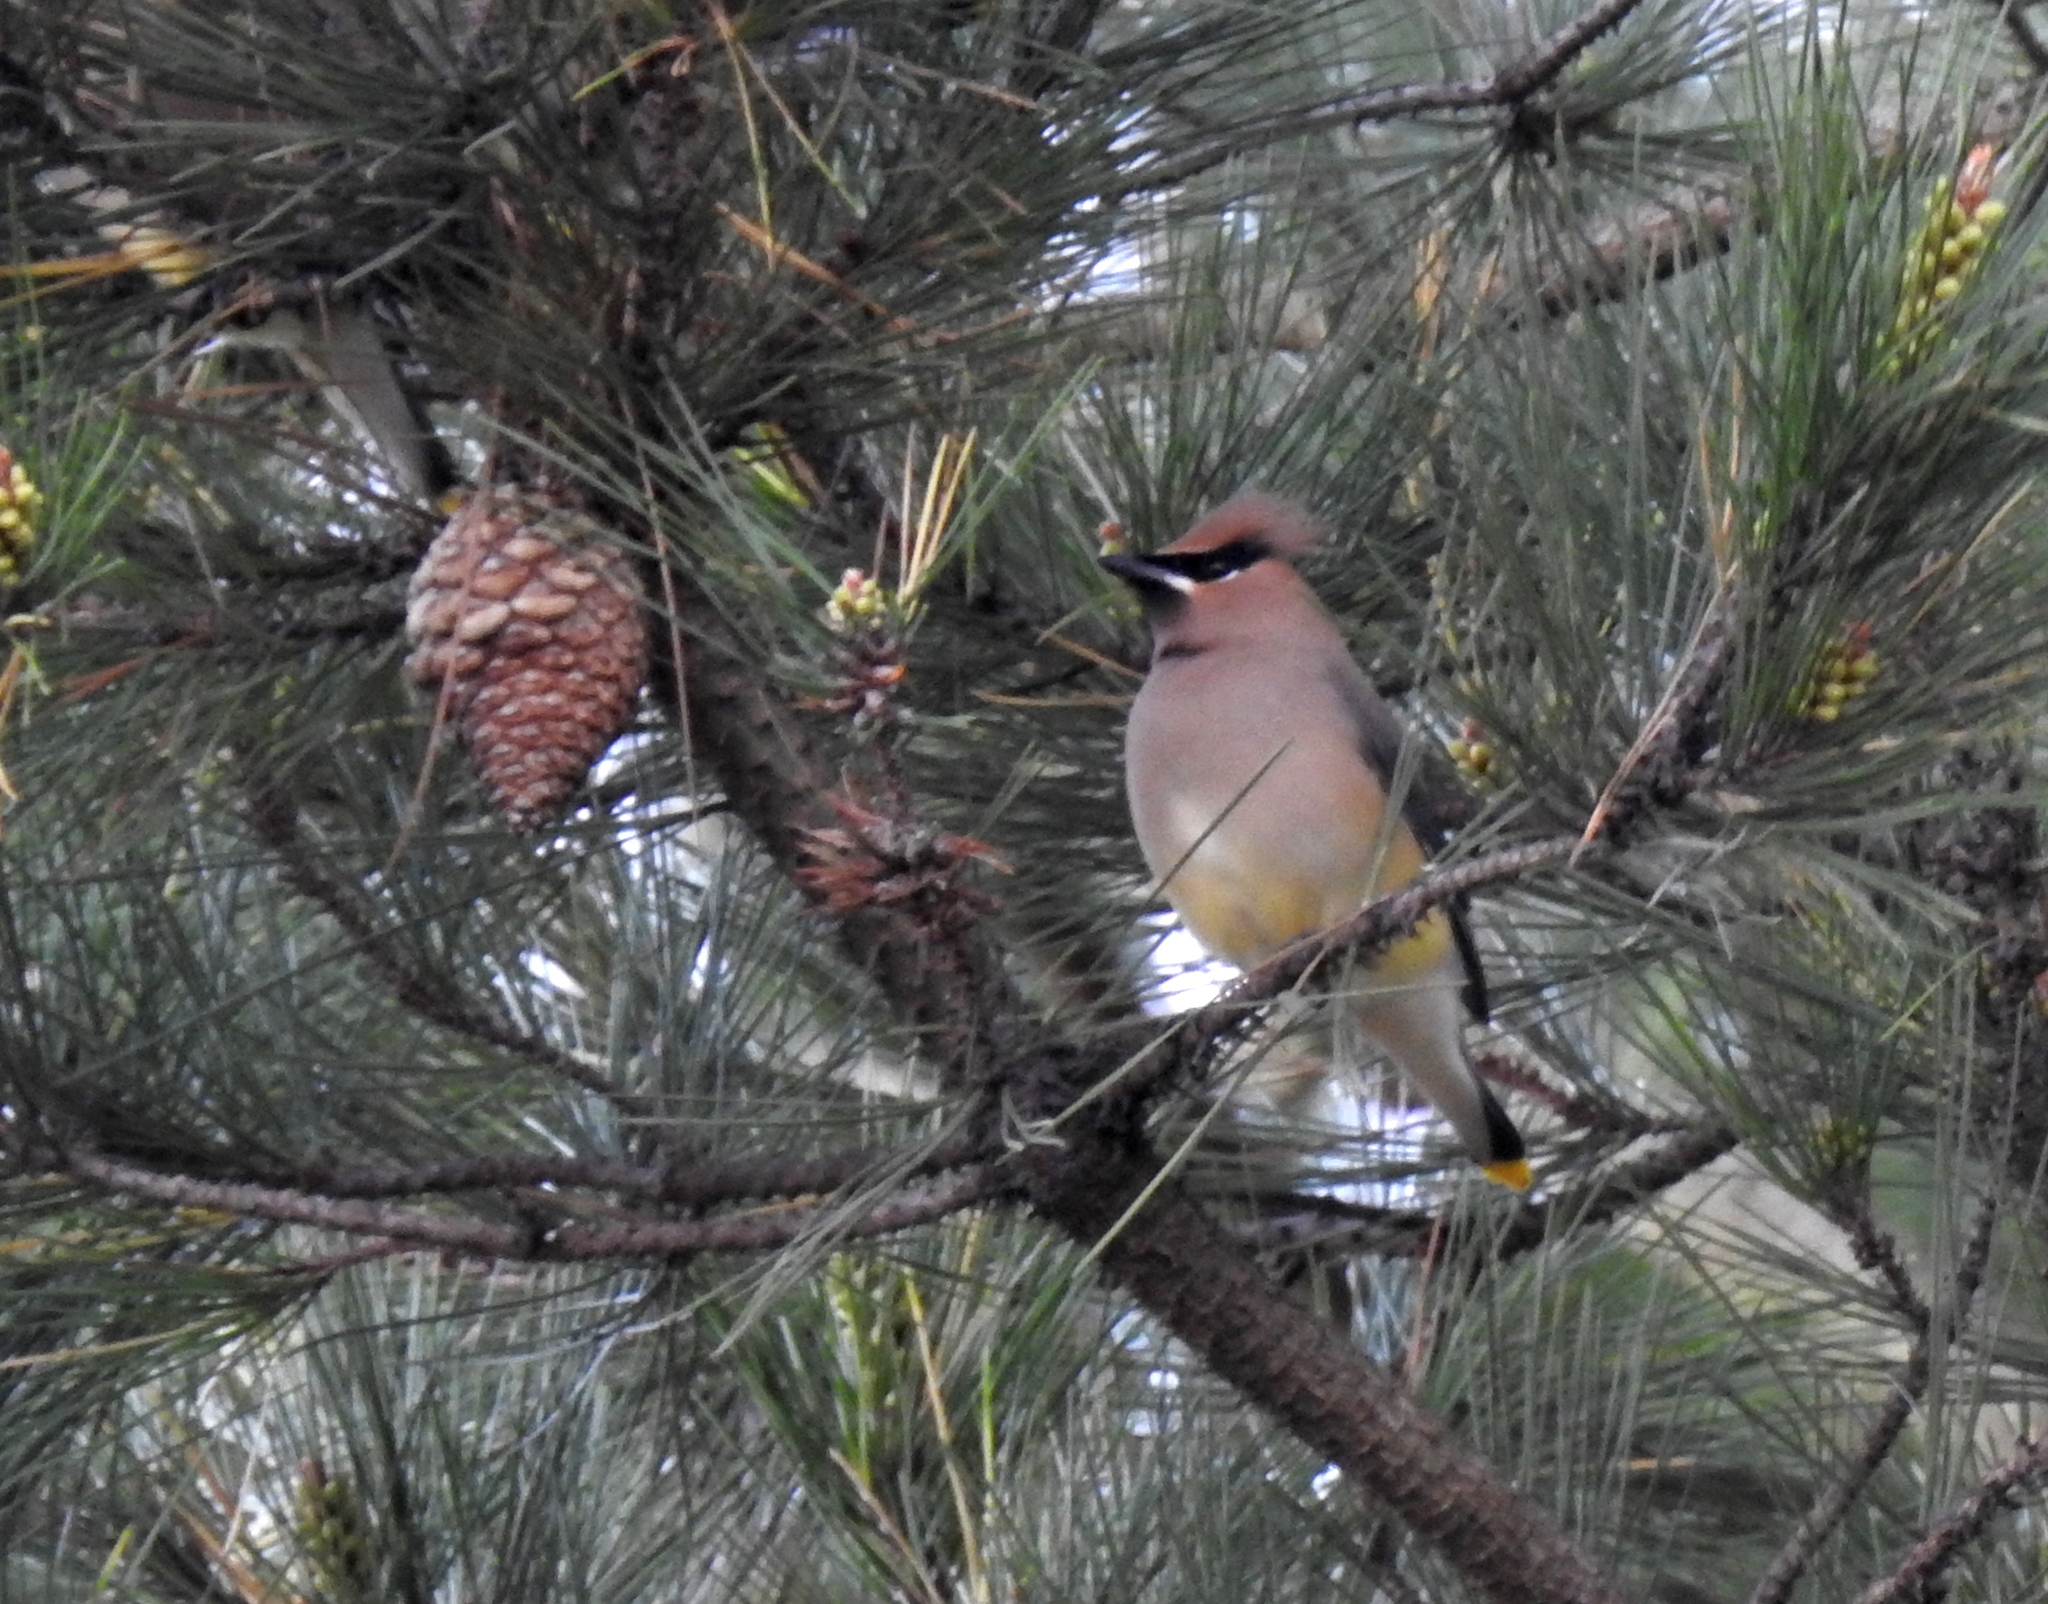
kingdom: Animalia
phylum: Chordata
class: Aves
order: Passeriformes
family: Bombycillidae
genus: Bombycilla
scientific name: Bombycilla cedrorum
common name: Cedar waxwing
